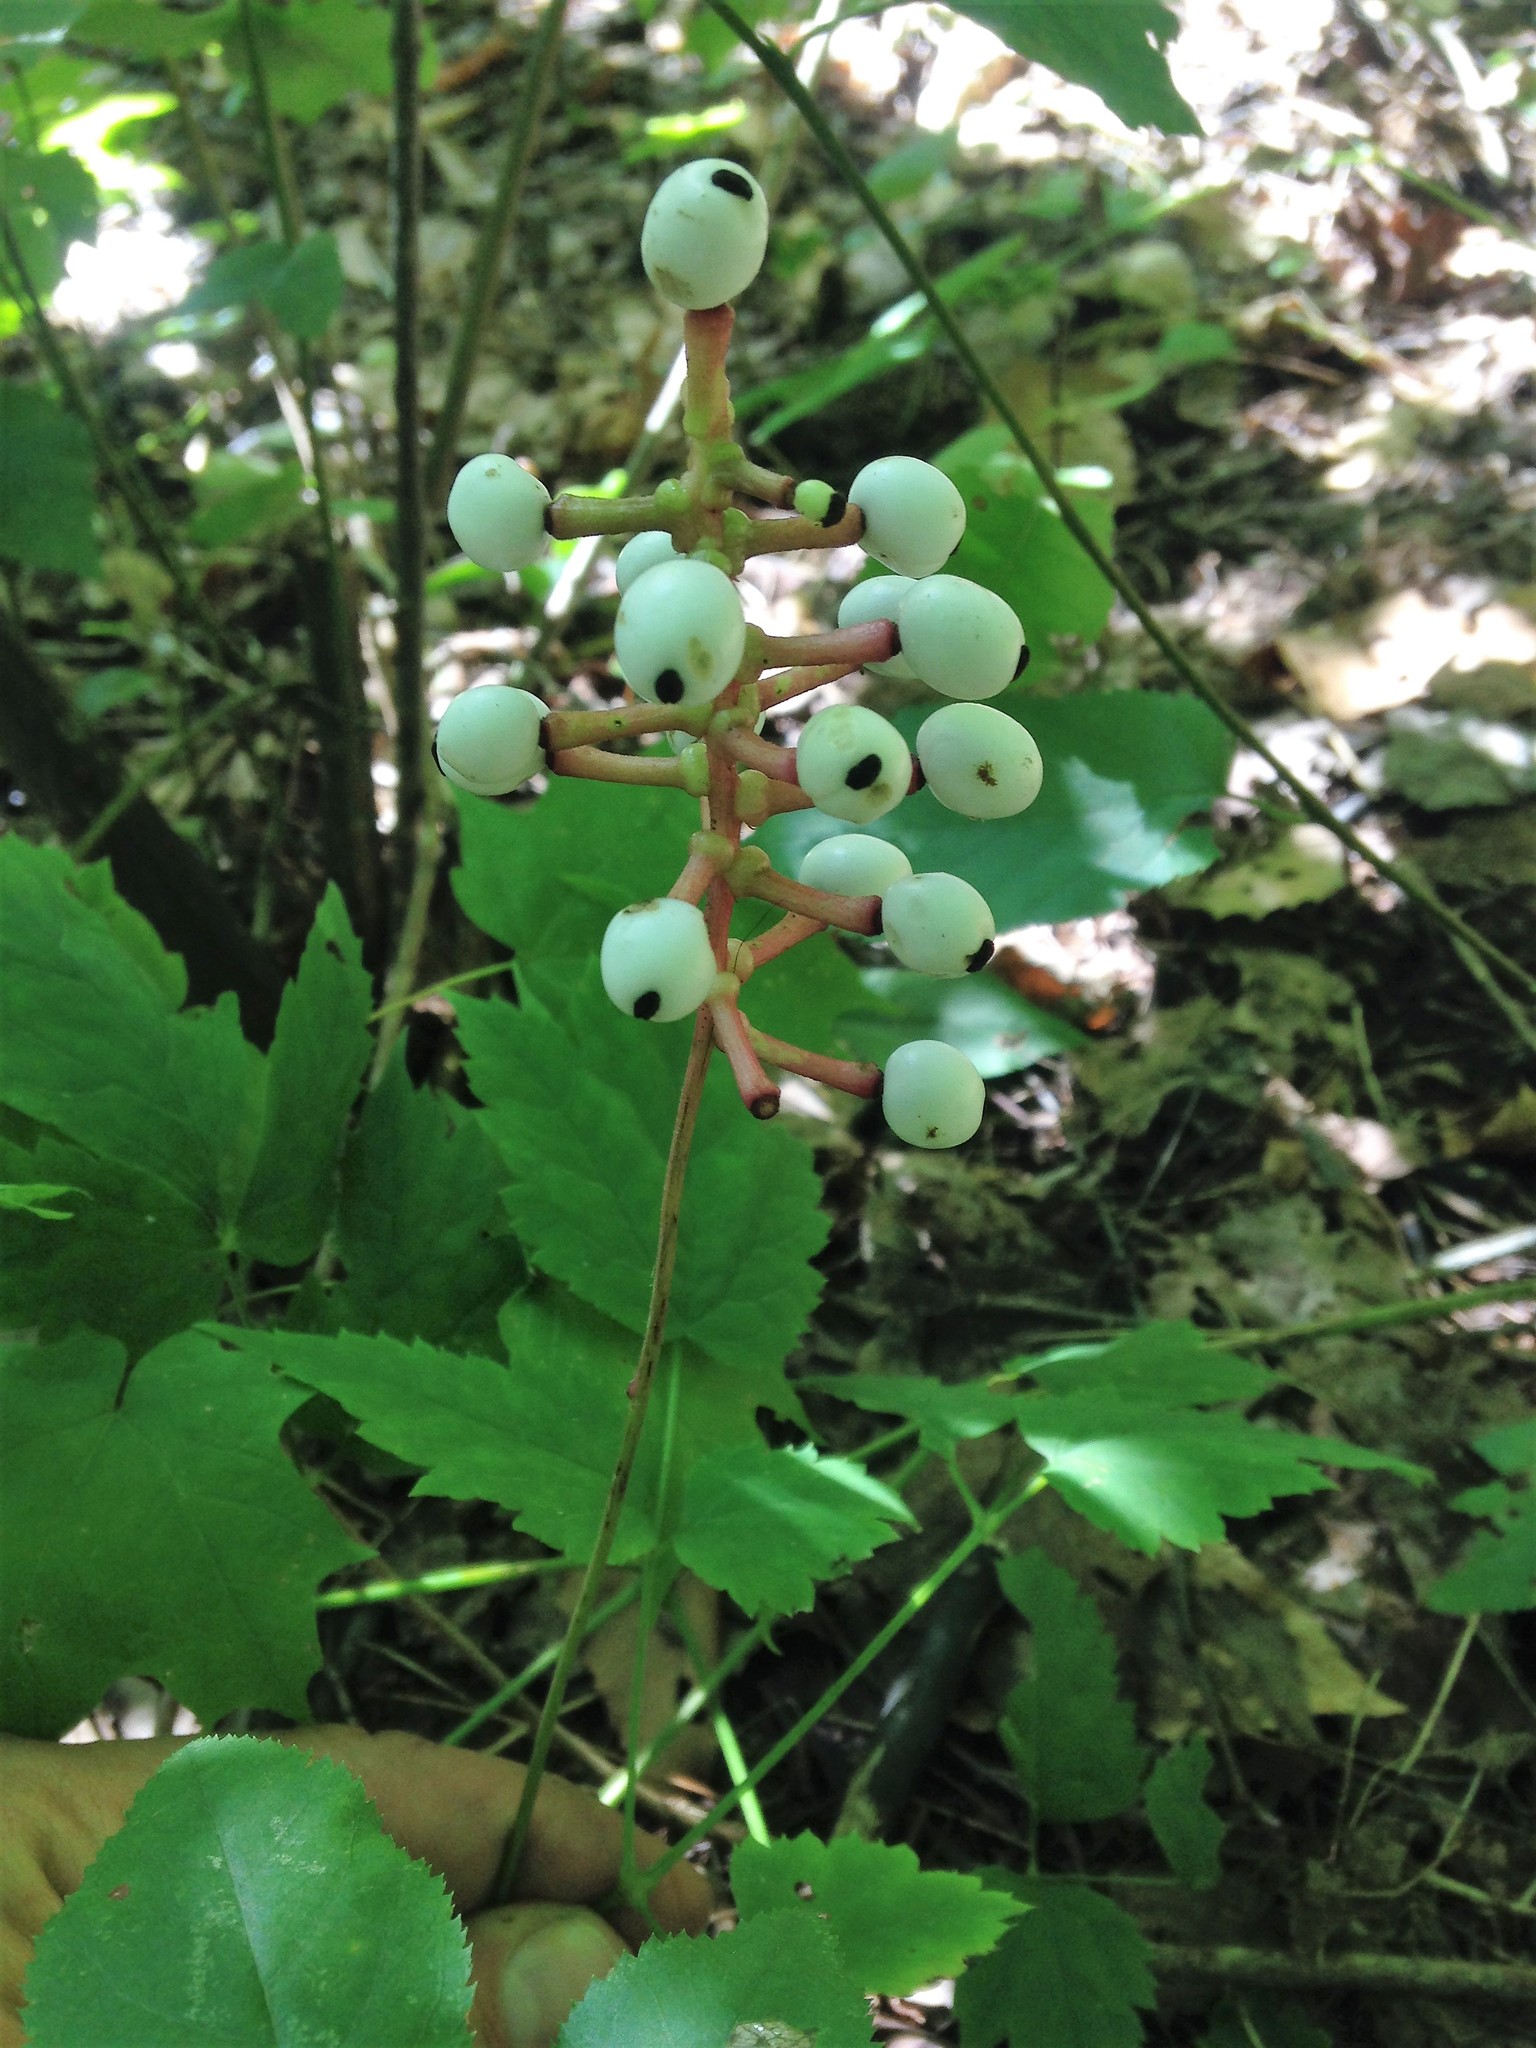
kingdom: Plantae
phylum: Tracheophyta
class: Magnoliopsida
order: Ranunculales
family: Ranunculaceae
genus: Actaea
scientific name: Actaea pachypoda
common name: Doll's-eyes
